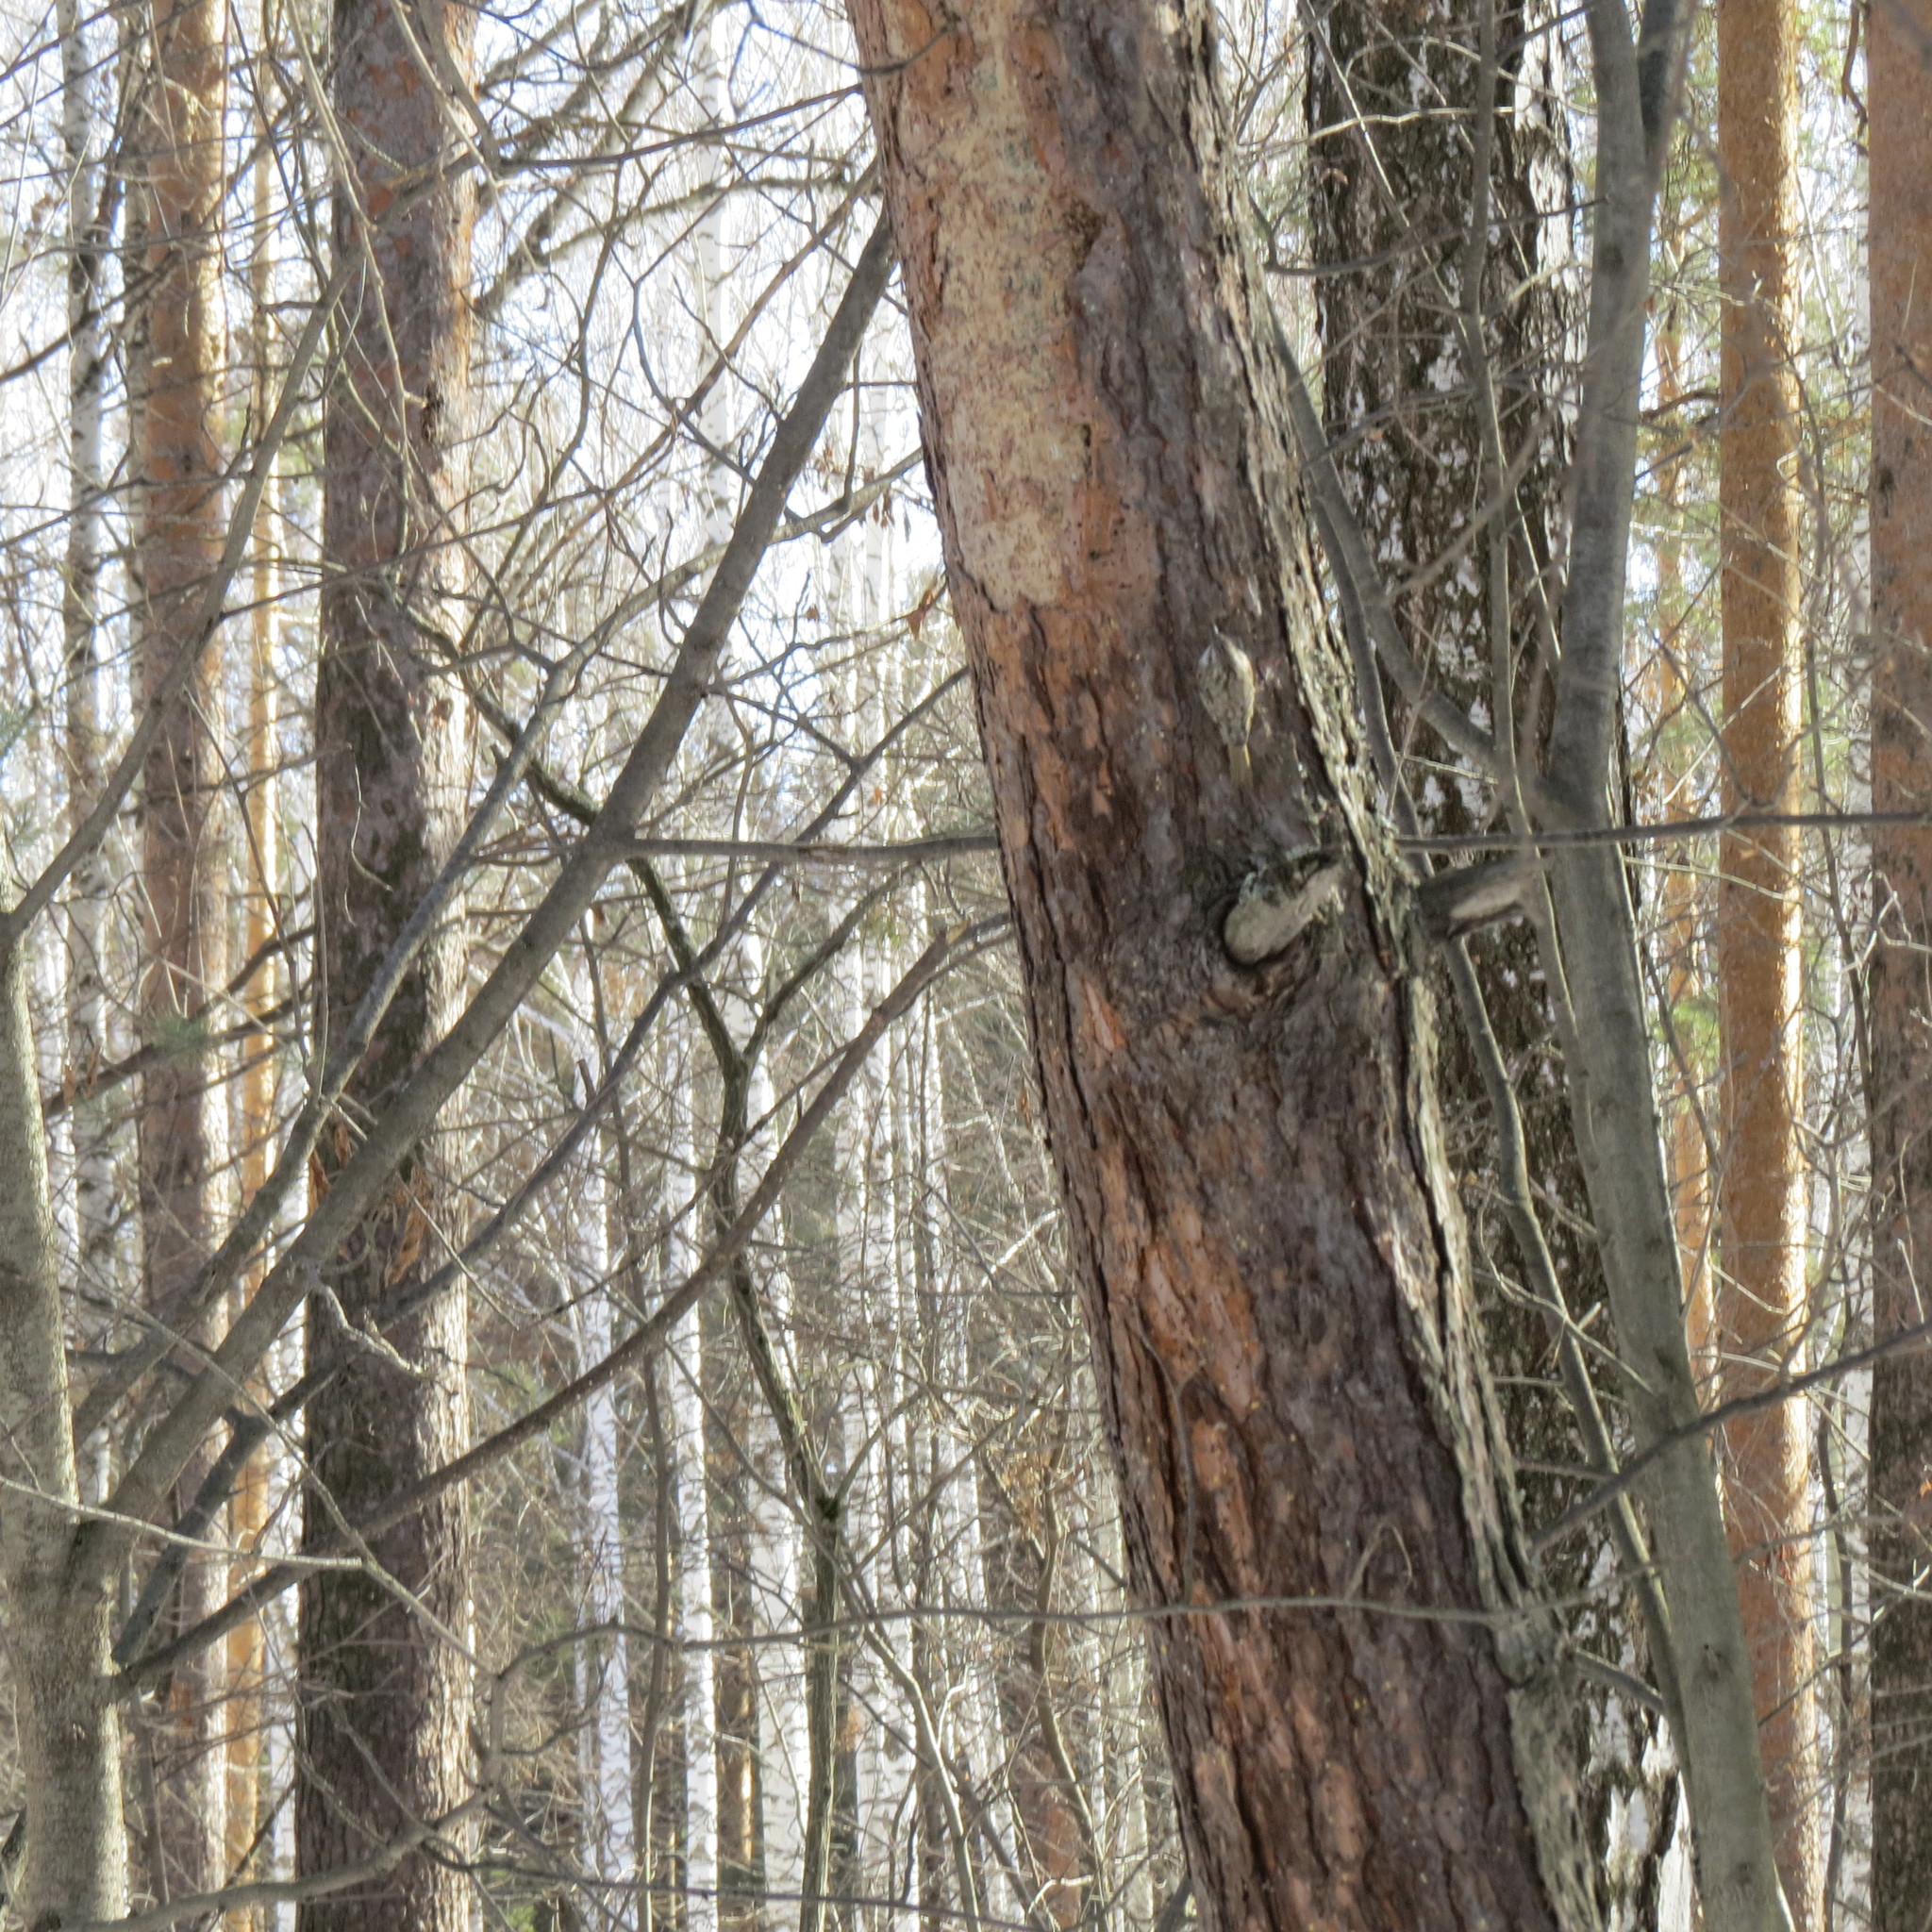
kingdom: Animalia
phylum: Chordata
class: Aves
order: Passeriformes
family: Certhiidae
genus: Certhia
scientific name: Certhia familiaris
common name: Eurasian treecreeper
